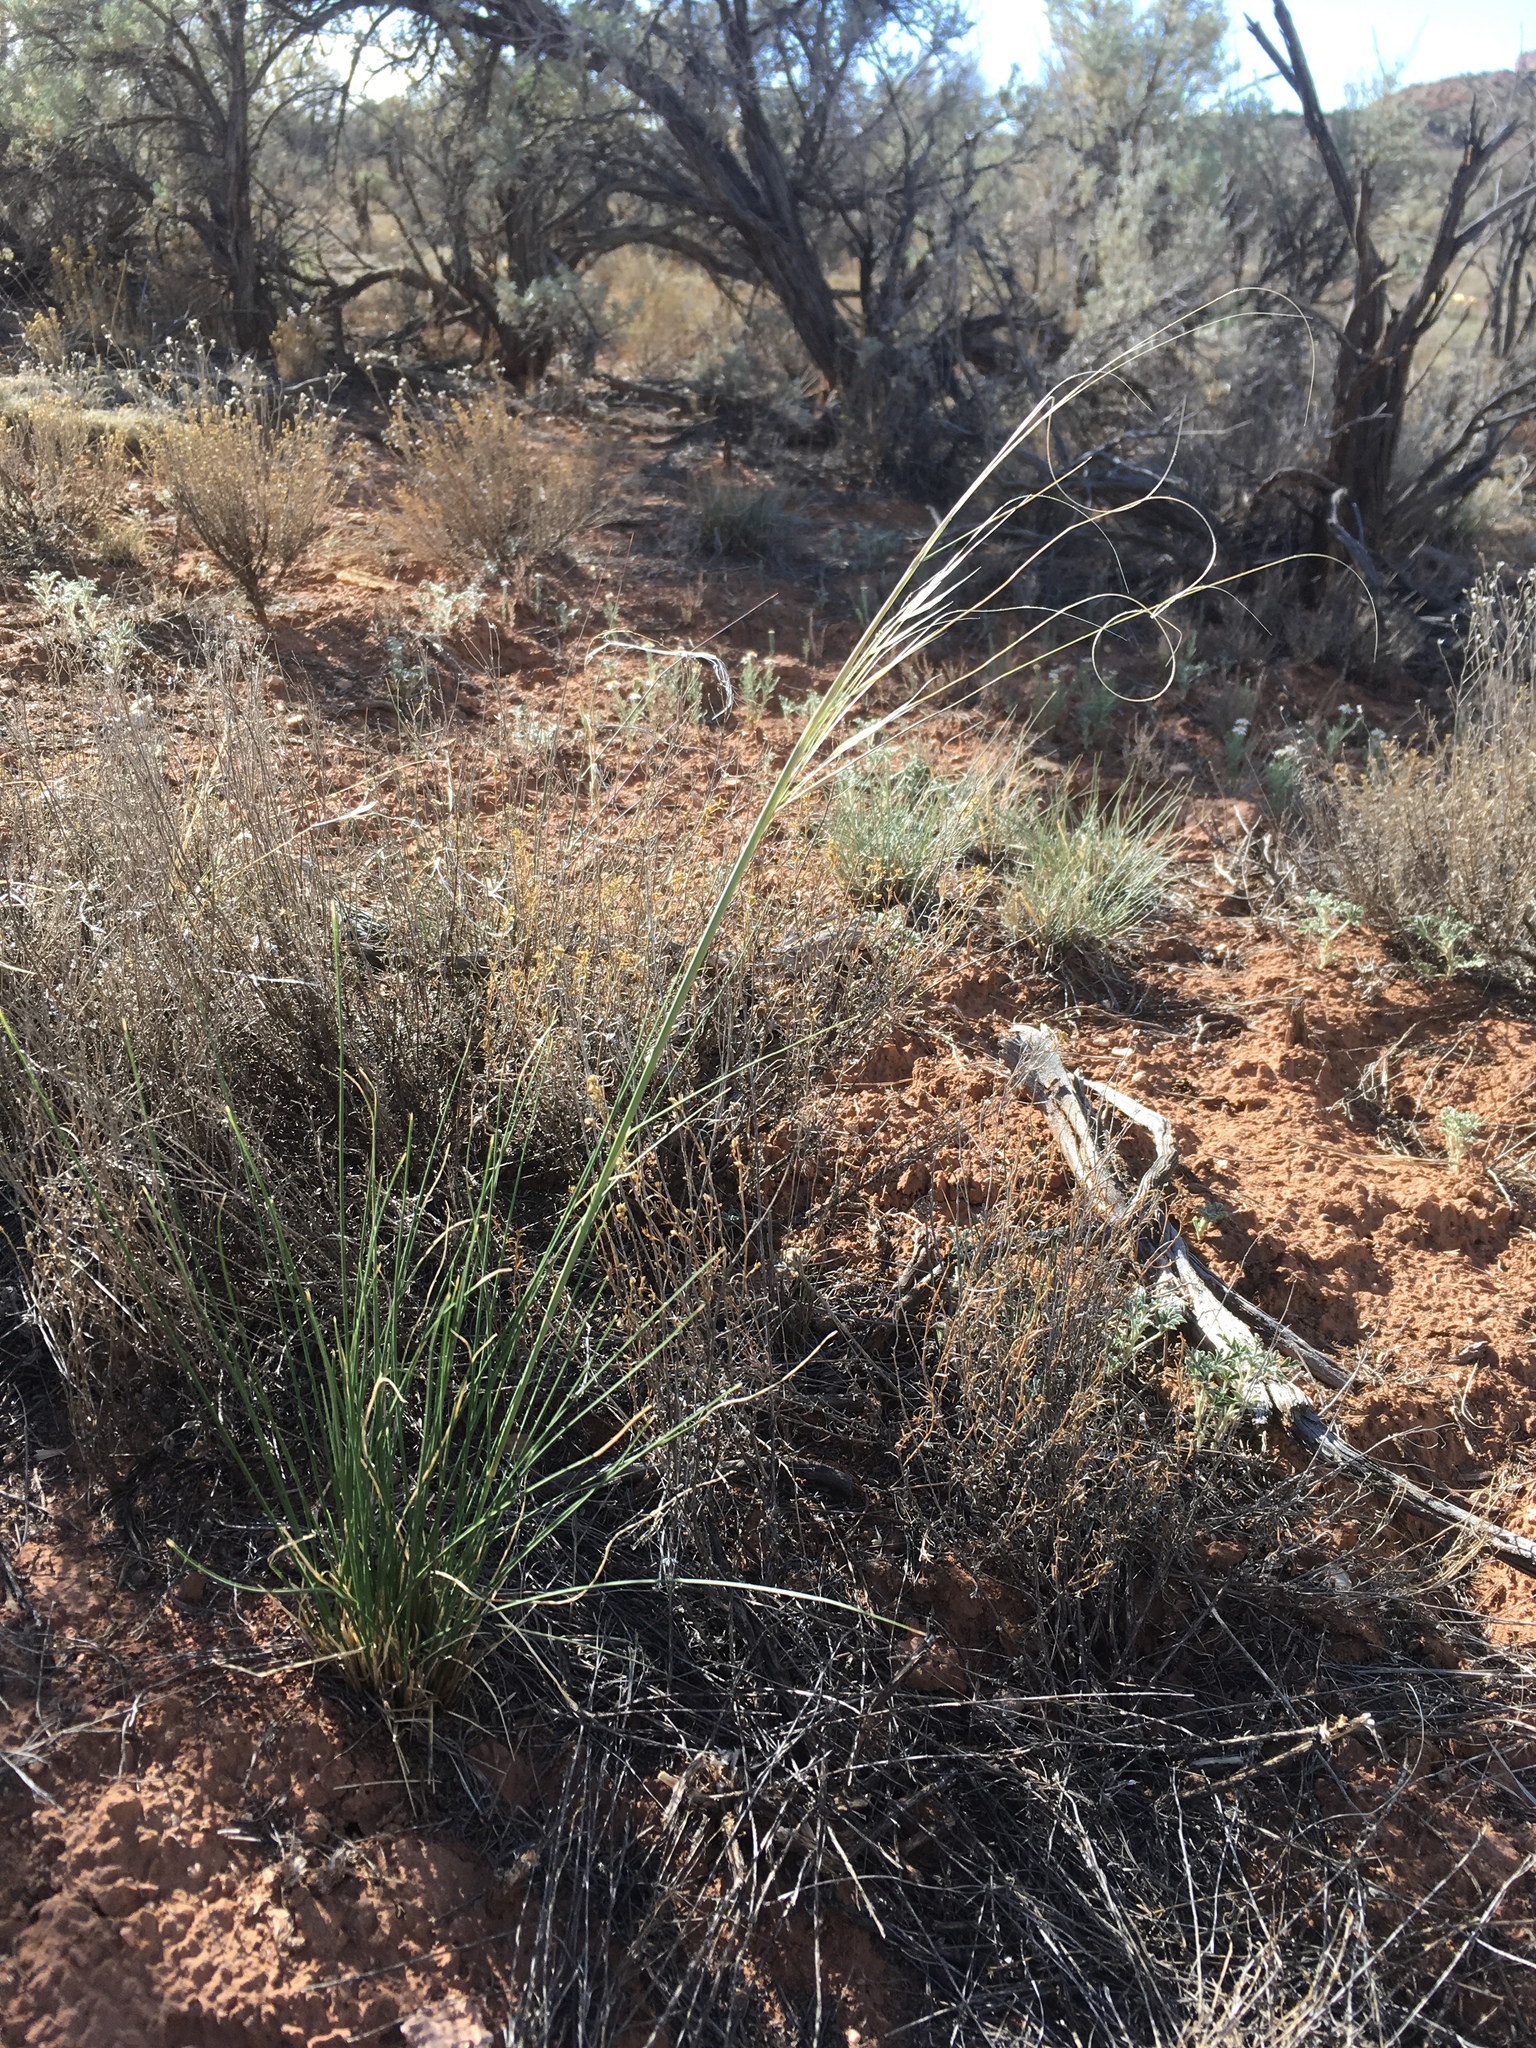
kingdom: Plantae
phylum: Tracheophyta
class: Liliopsida
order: Poales
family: Poaceae
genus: Hesperostipa
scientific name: Hesperostipa comata
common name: Needle-and-thread grass
